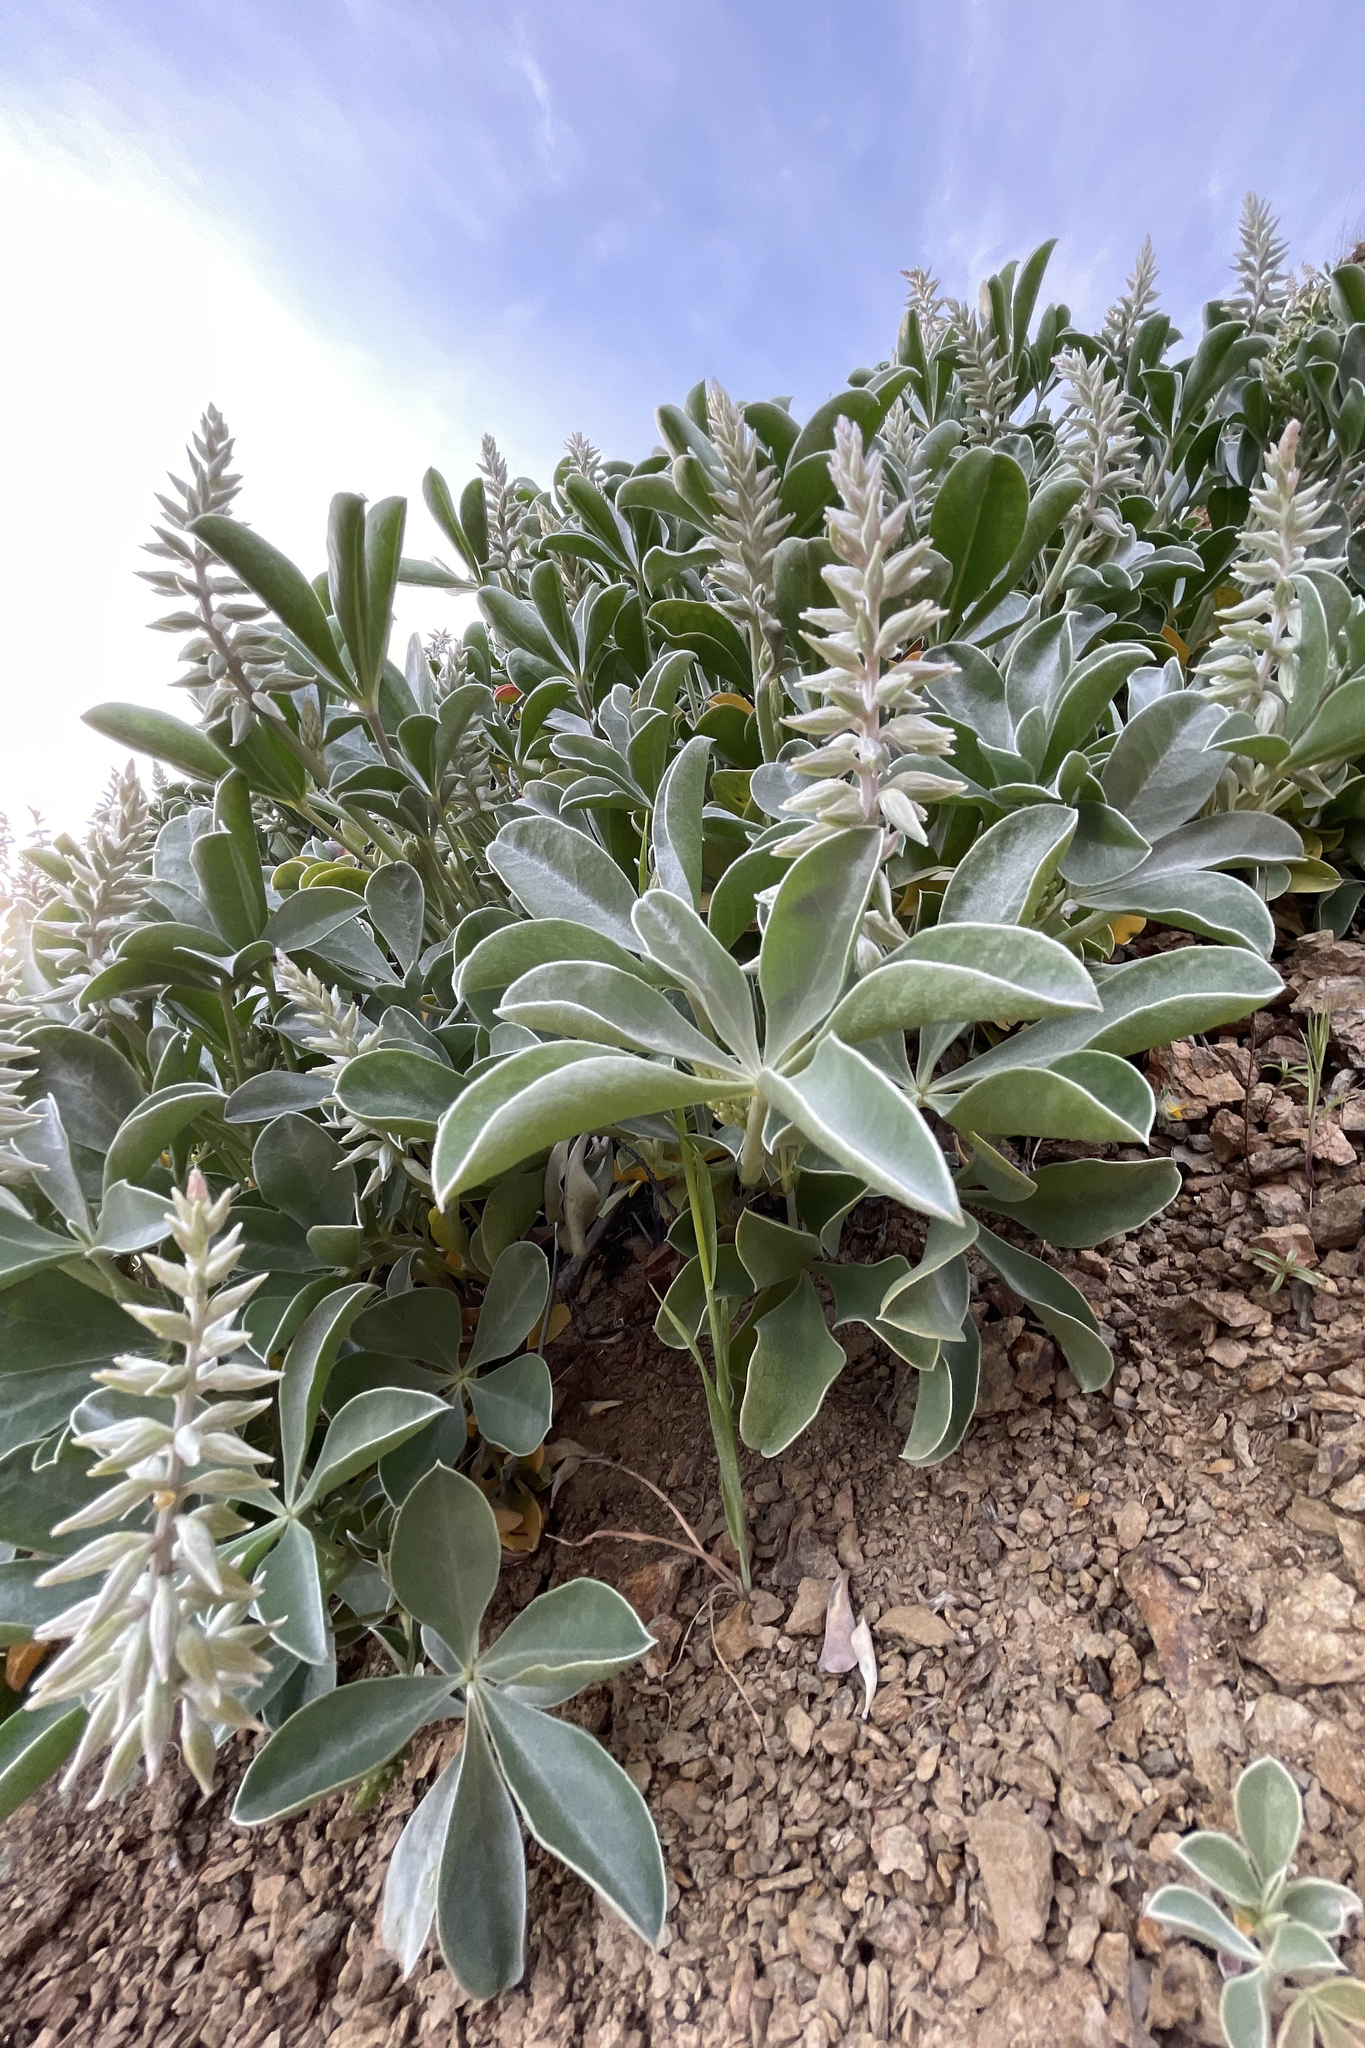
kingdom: Plantae
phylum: Tracheophyta
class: Magnoliopsida
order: Fabales
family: Fabaceae
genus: Lupinus
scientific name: Lupinus sericatus
